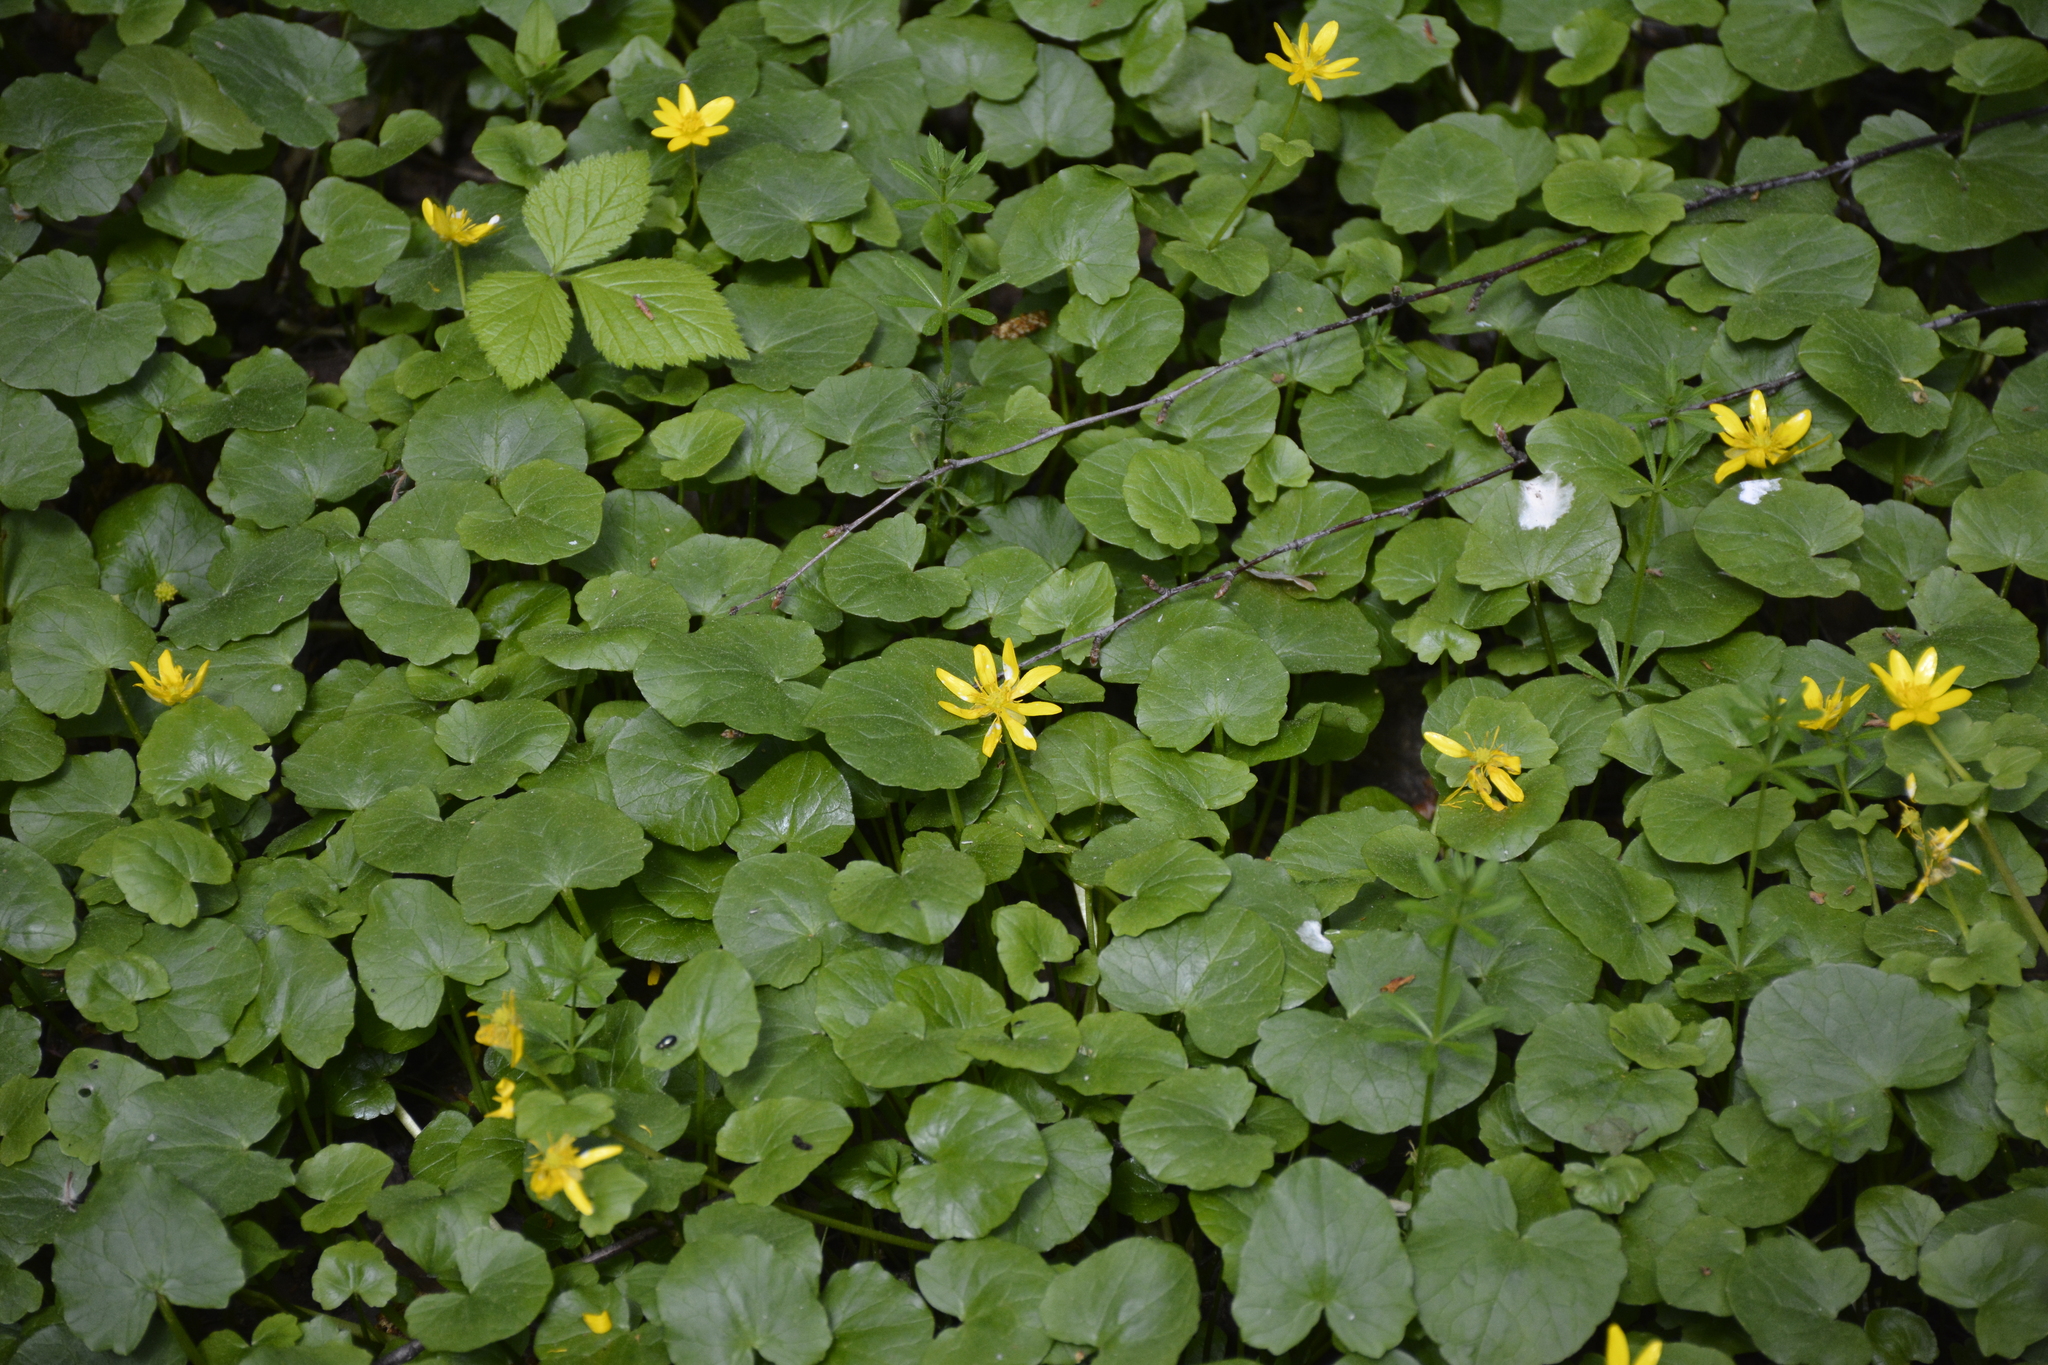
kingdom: Plantae
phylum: Tracheophyta
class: Magnoliopsida
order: Ranunculales
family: Ranunculaceae
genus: Ficaria
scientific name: Ficaria verna
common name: Lesser celandine
